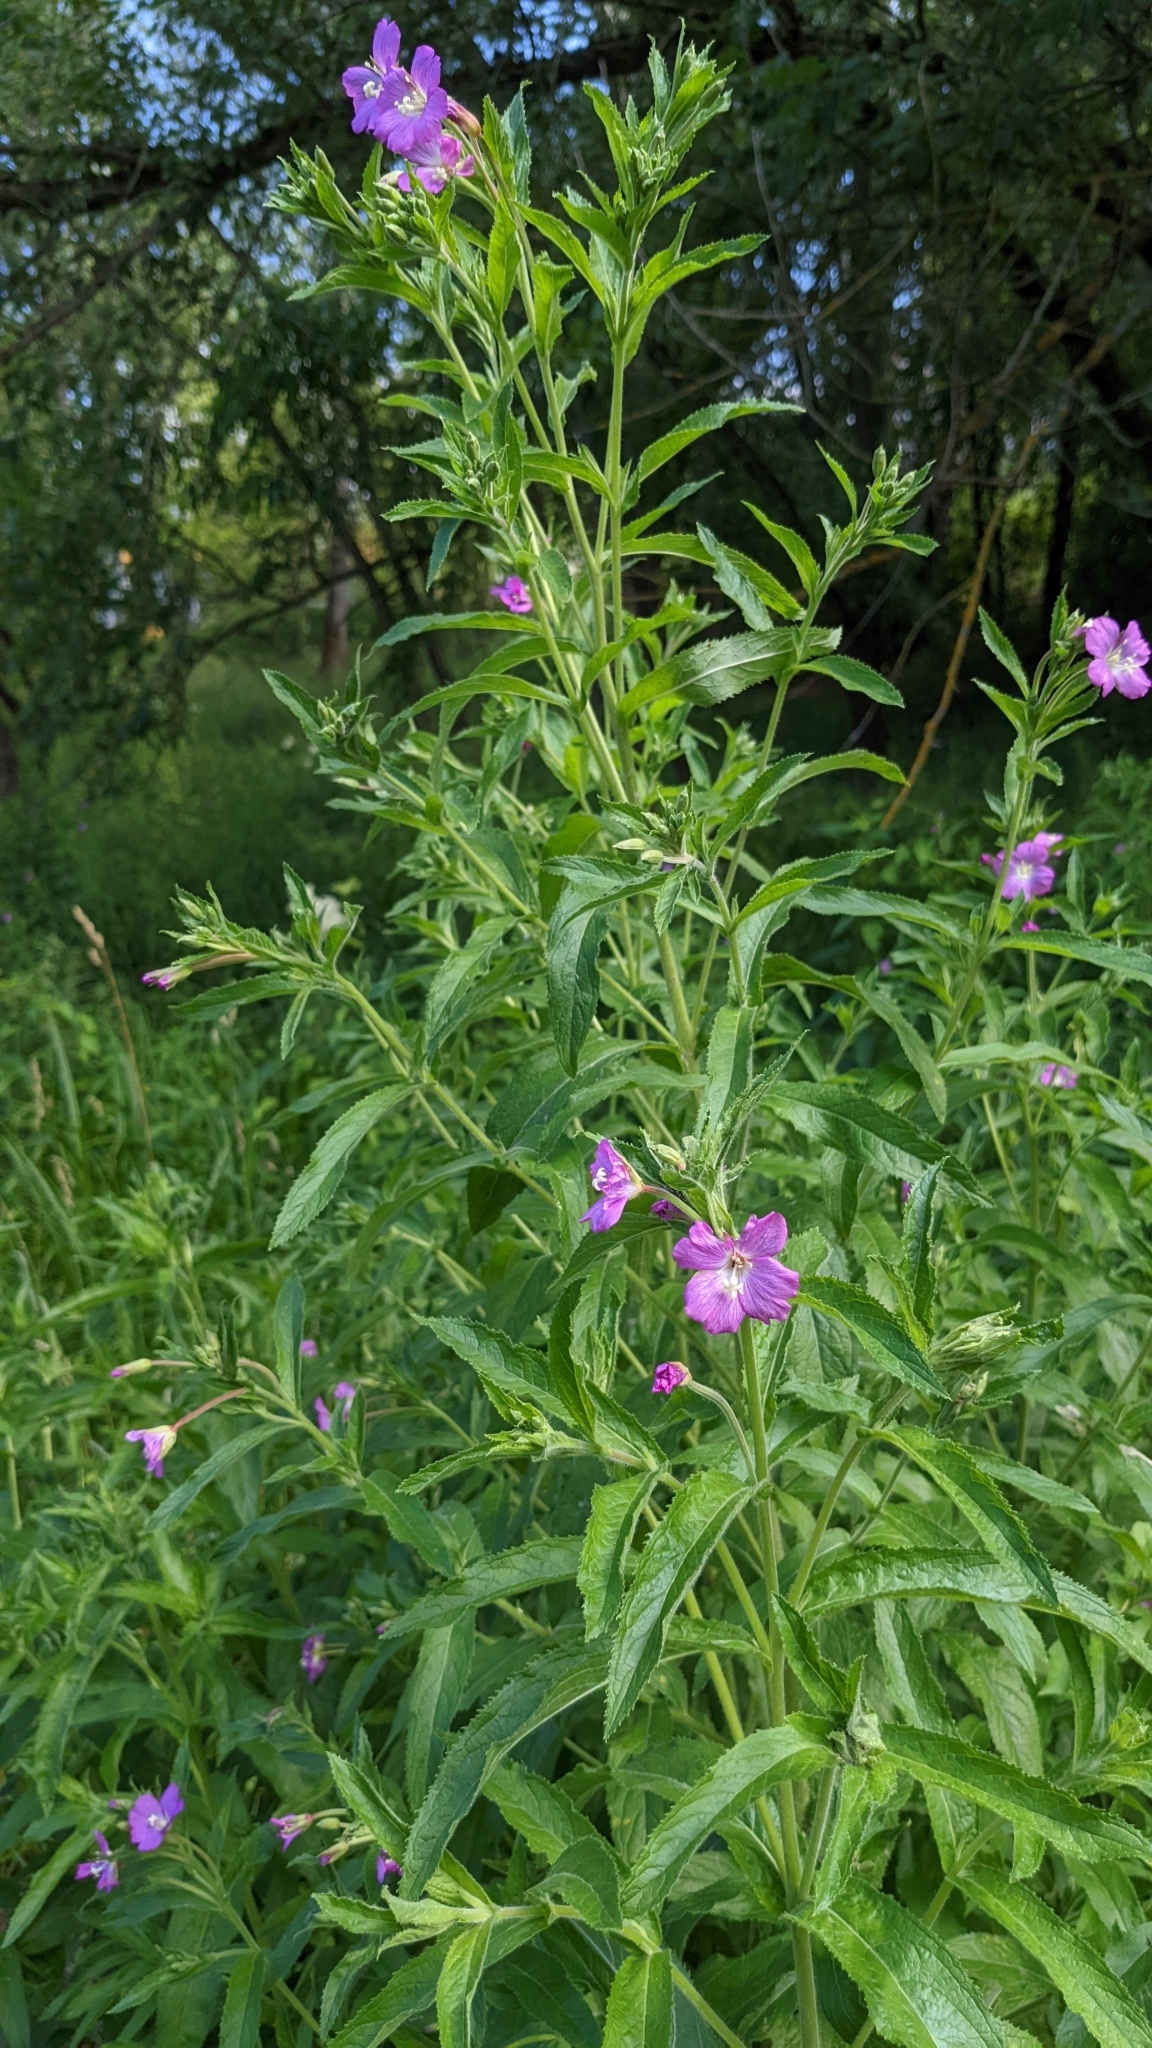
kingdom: Plantae
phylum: Tracheophyta
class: Magnoliopsida
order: Myrtales
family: Onagraceae
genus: Epilobium
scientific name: Epilobium hirsutum
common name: Great willowherb
